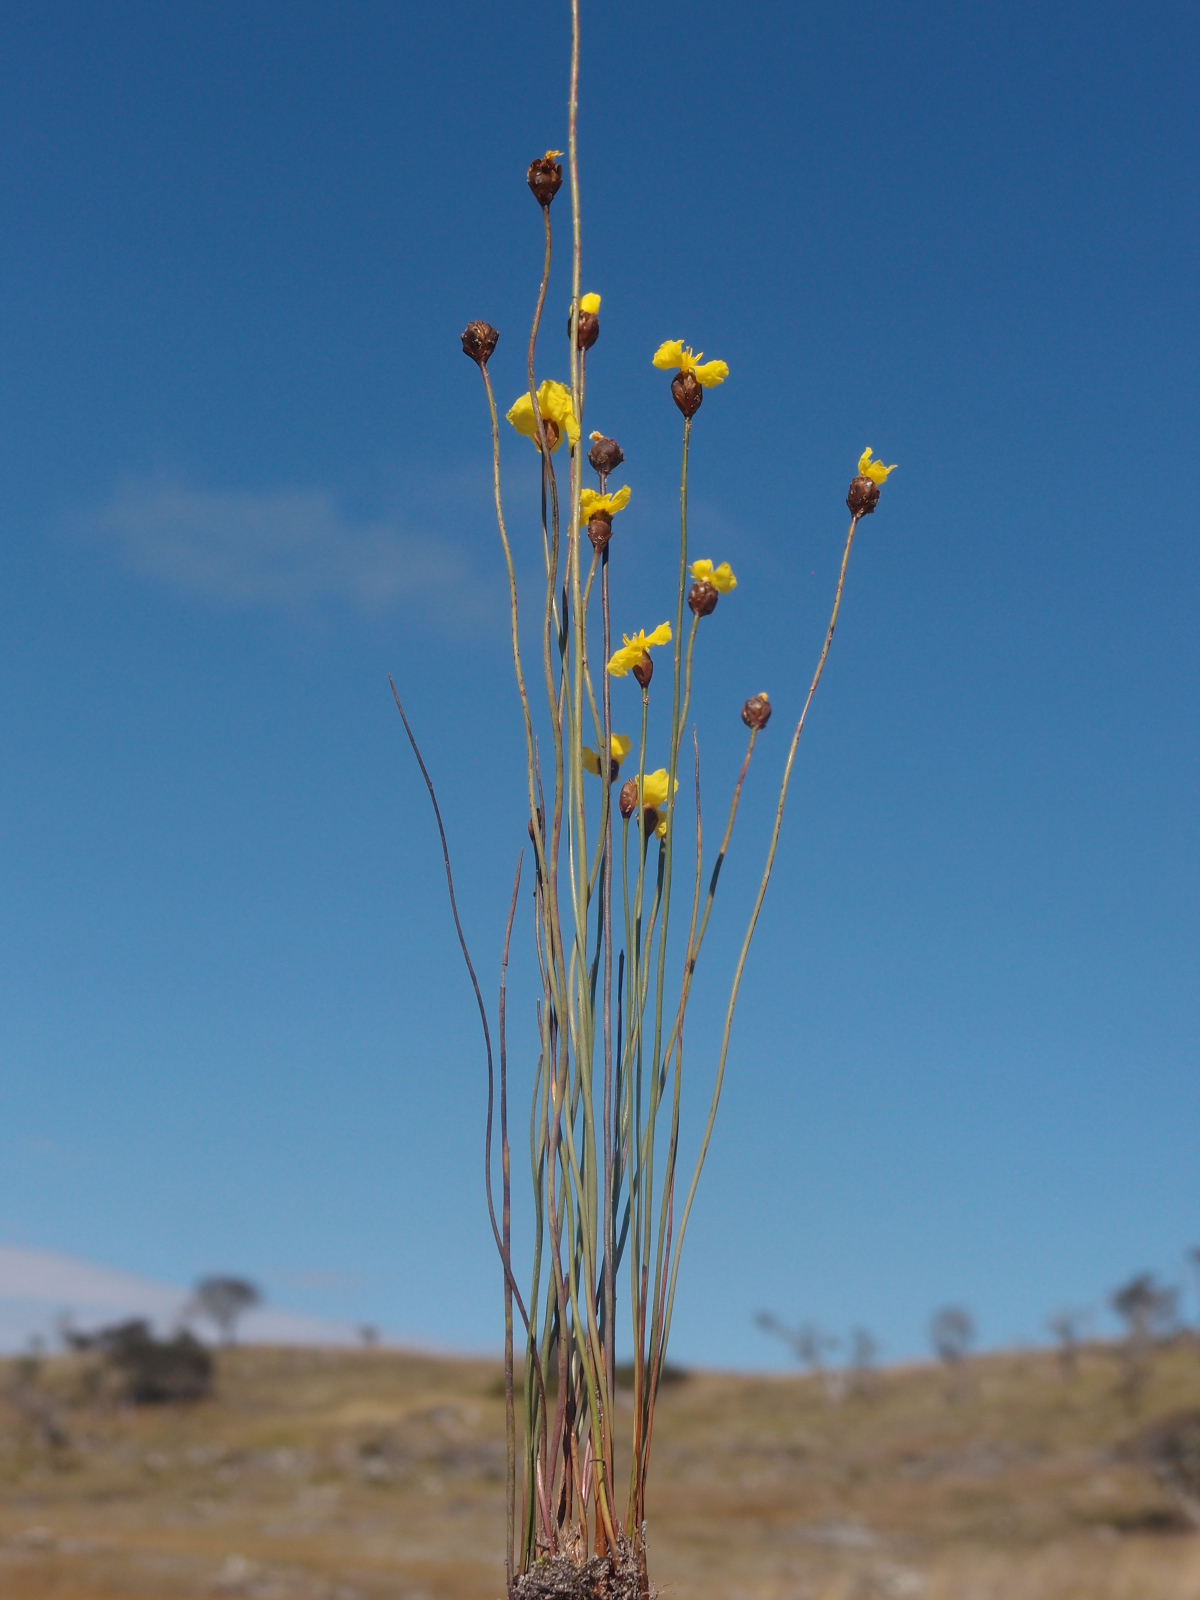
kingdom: Plantae
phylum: Tracheophyta
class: Liliopsida
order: Poales
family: Xyridaceae
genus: Xyris
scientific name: Xyris capensis
